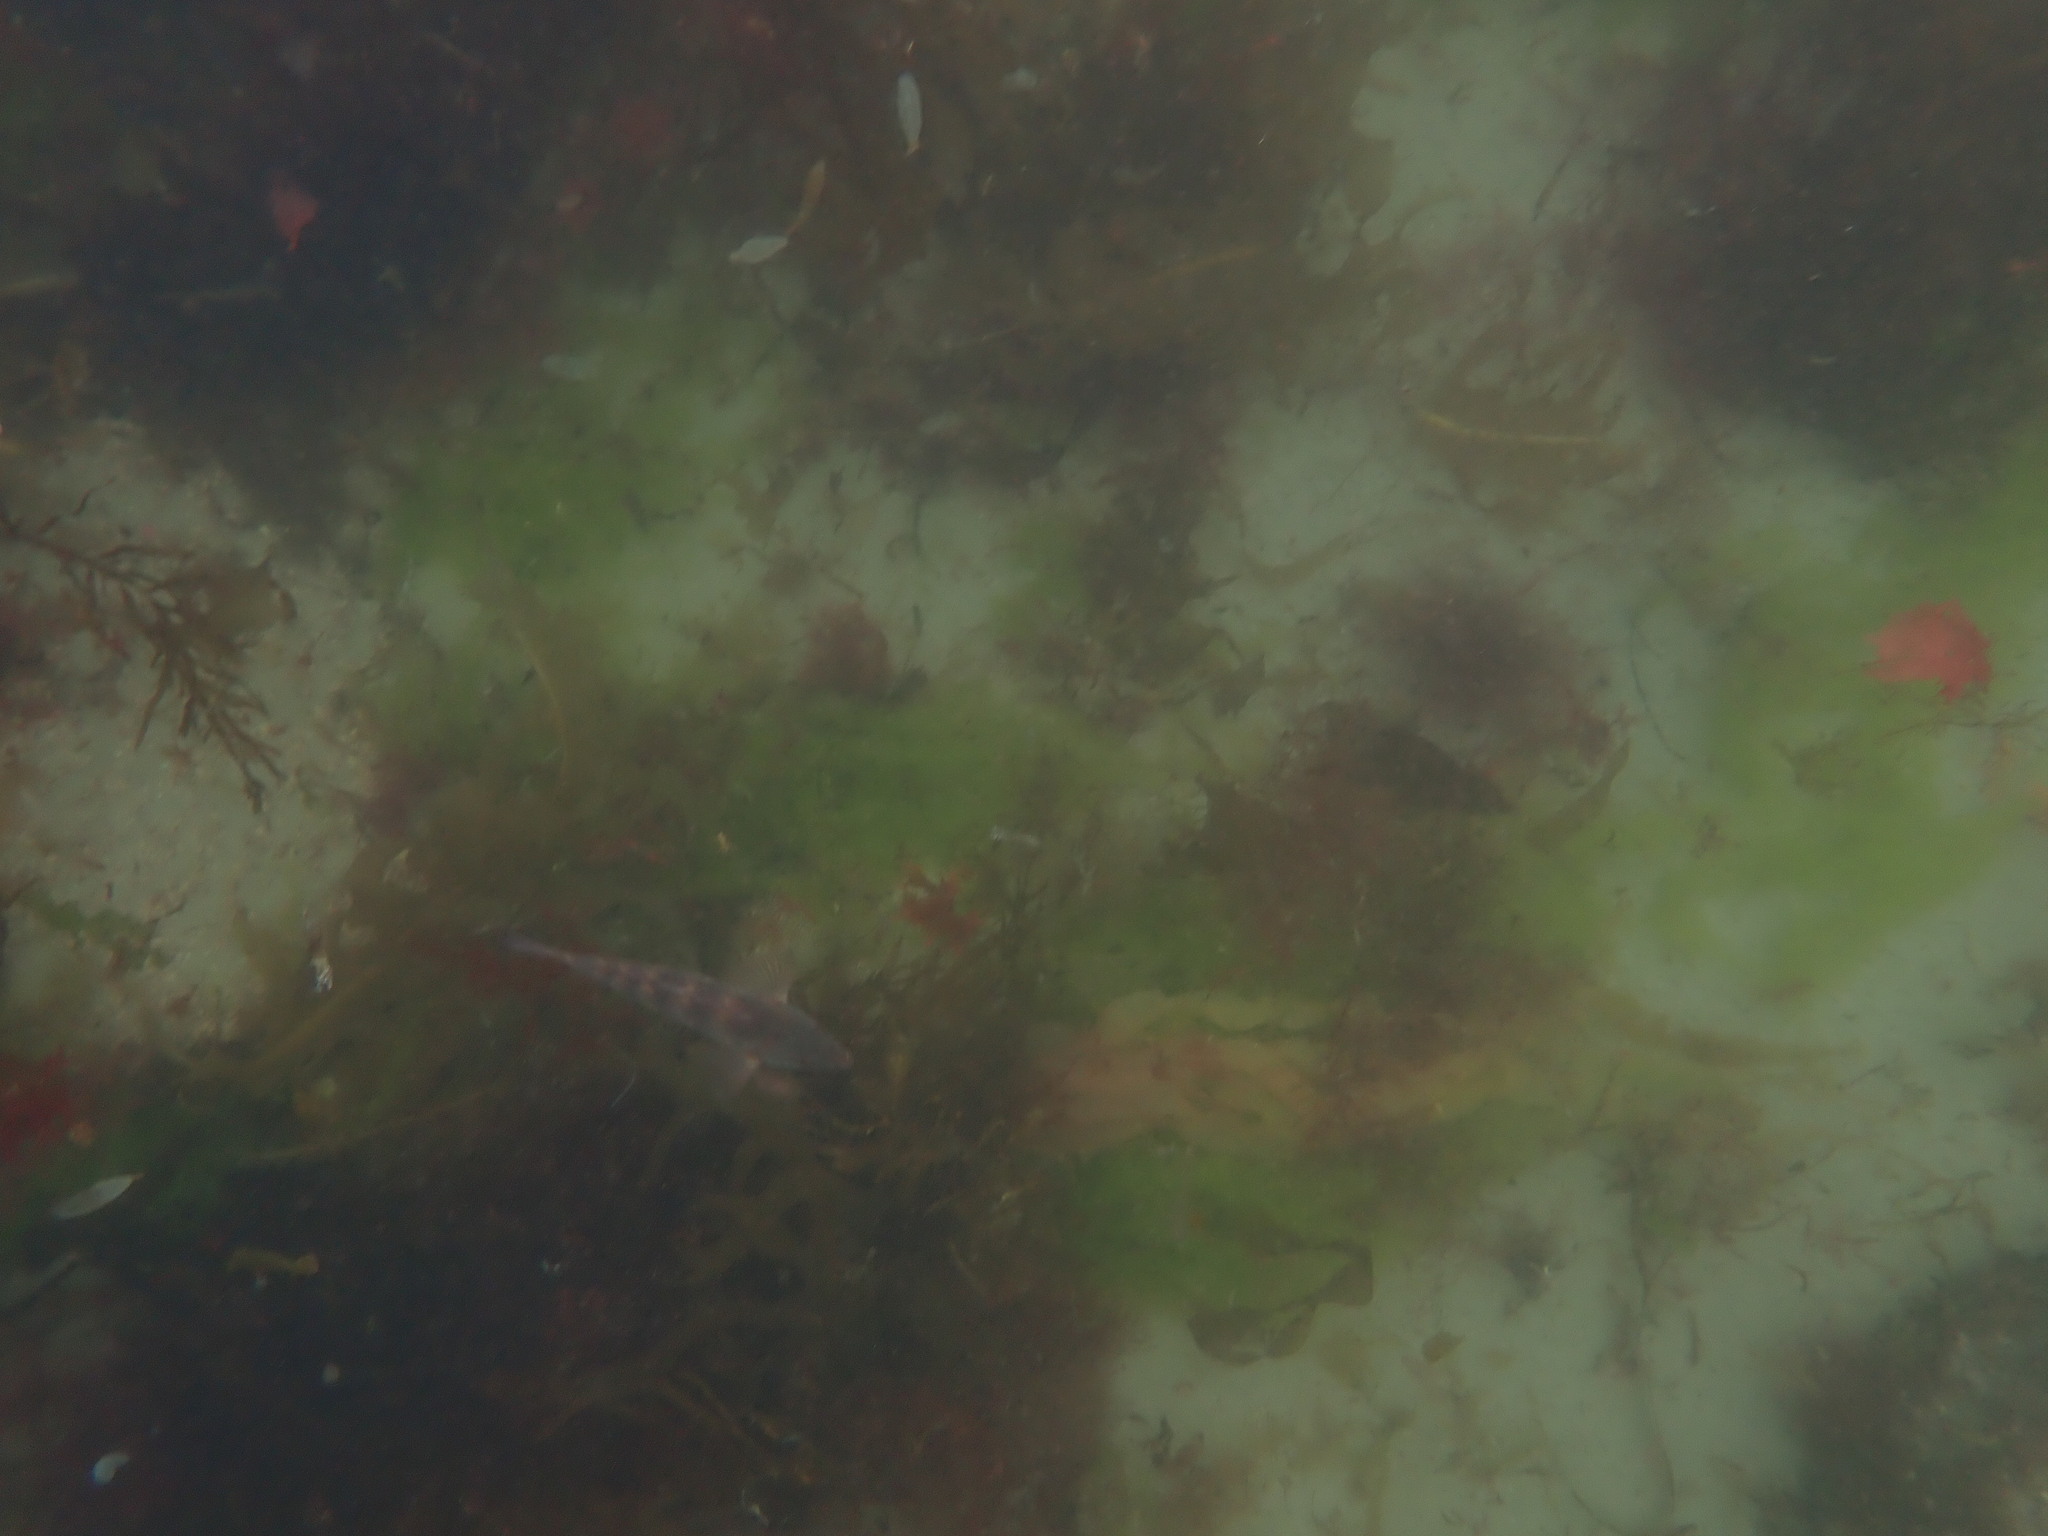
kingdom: Animalia
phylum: Chordata
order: Perciformes
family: Labridae
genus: Notolabrus
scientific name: Notolabrus fucicola
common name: Banded parrotfish
